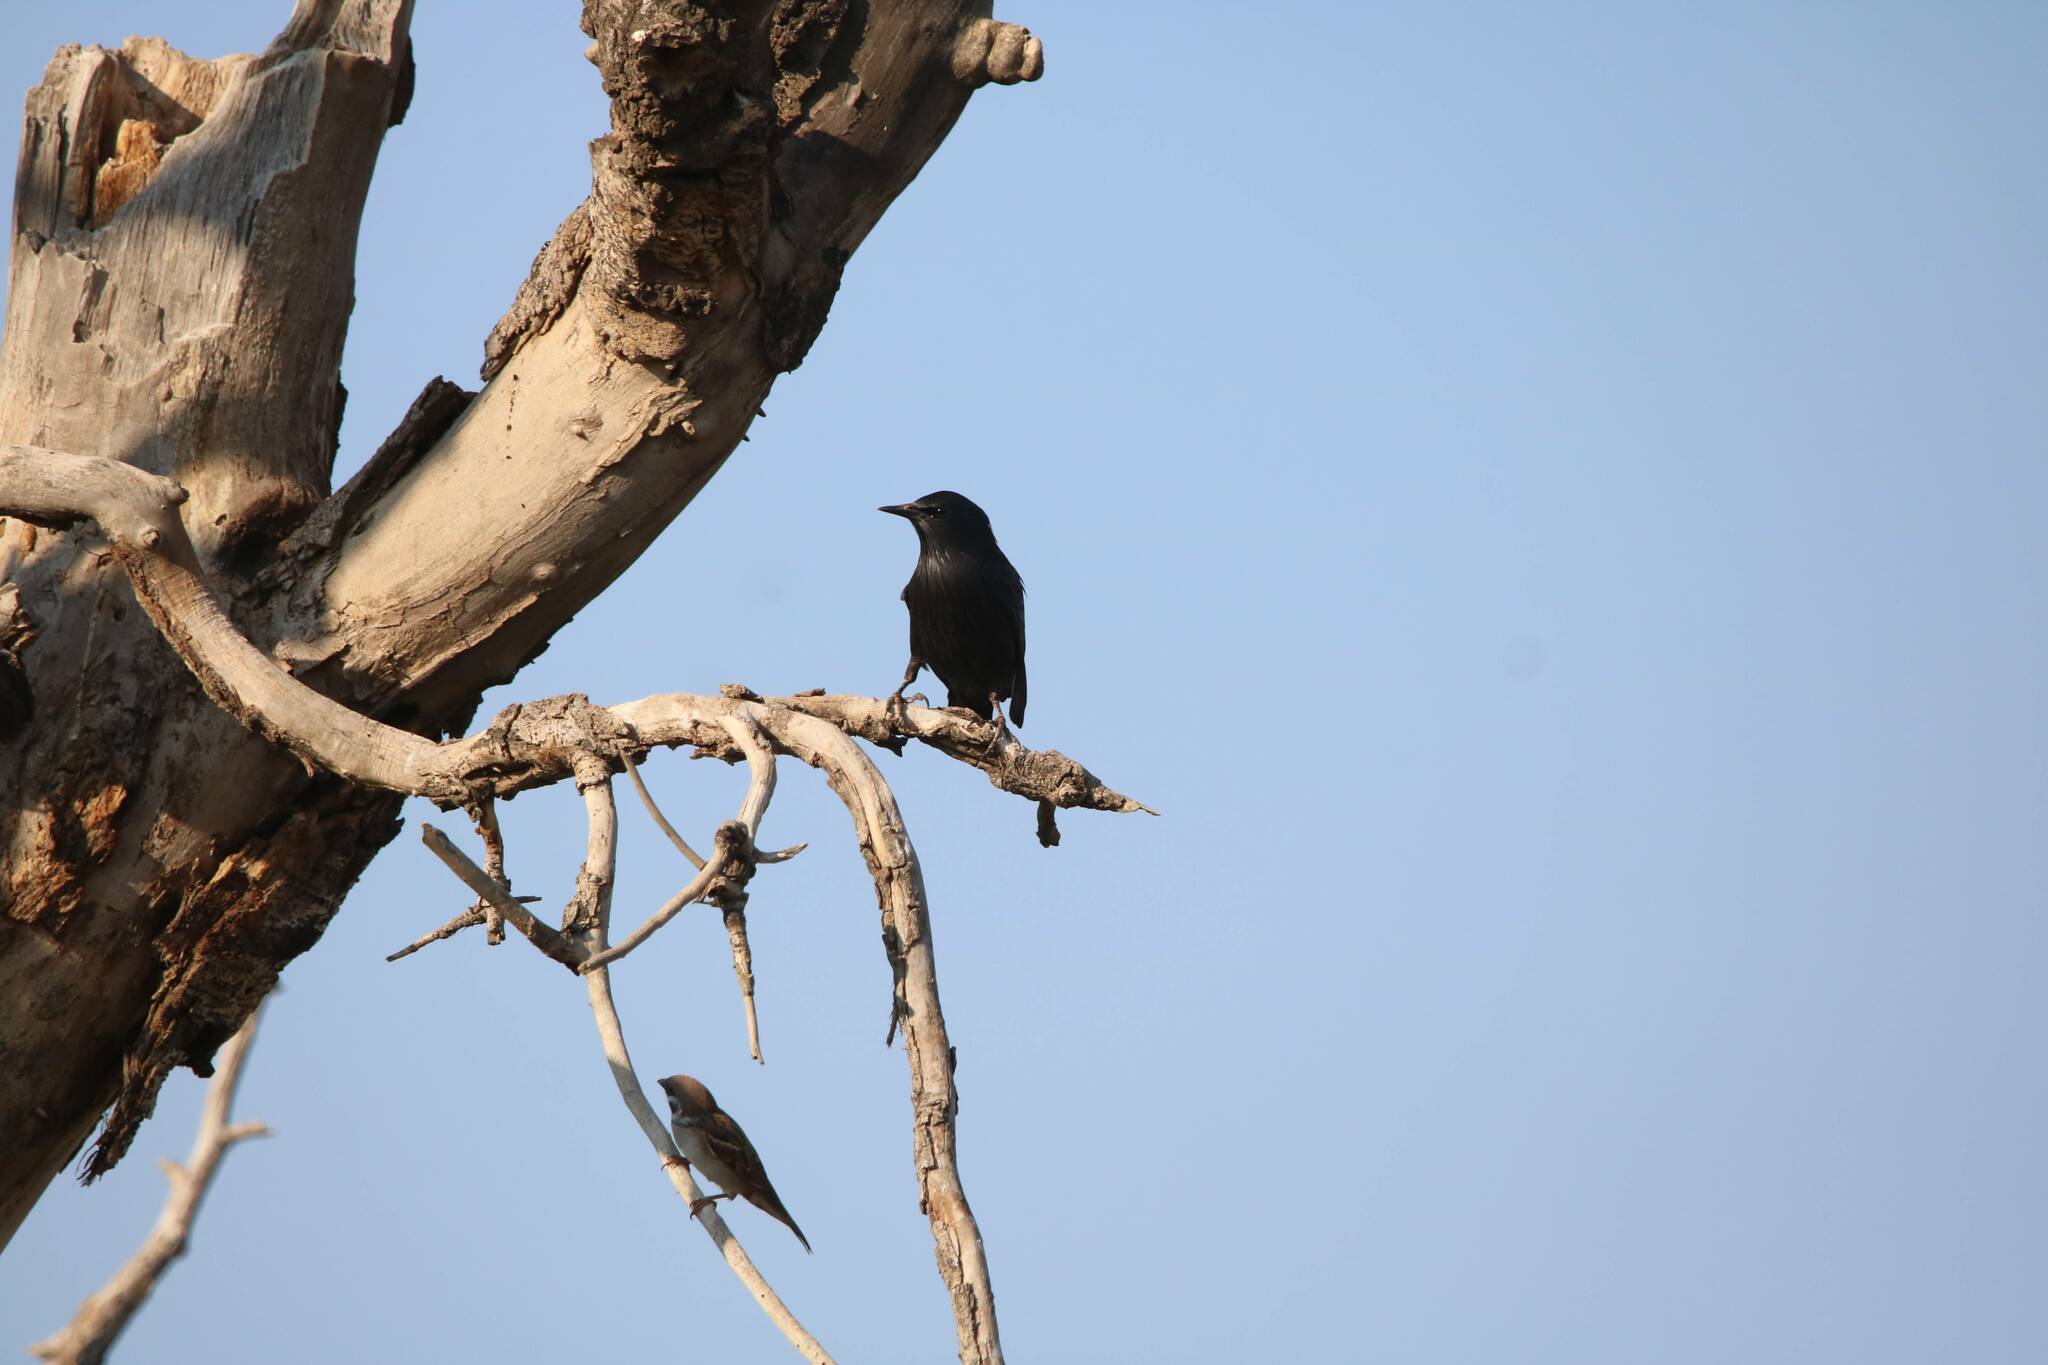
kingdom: Animalia
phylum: Chordata
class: Aves
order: Passeriformes
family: Sturnidae
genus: Sturnus
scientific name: Sturnus unicolor
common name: Spotless starling
